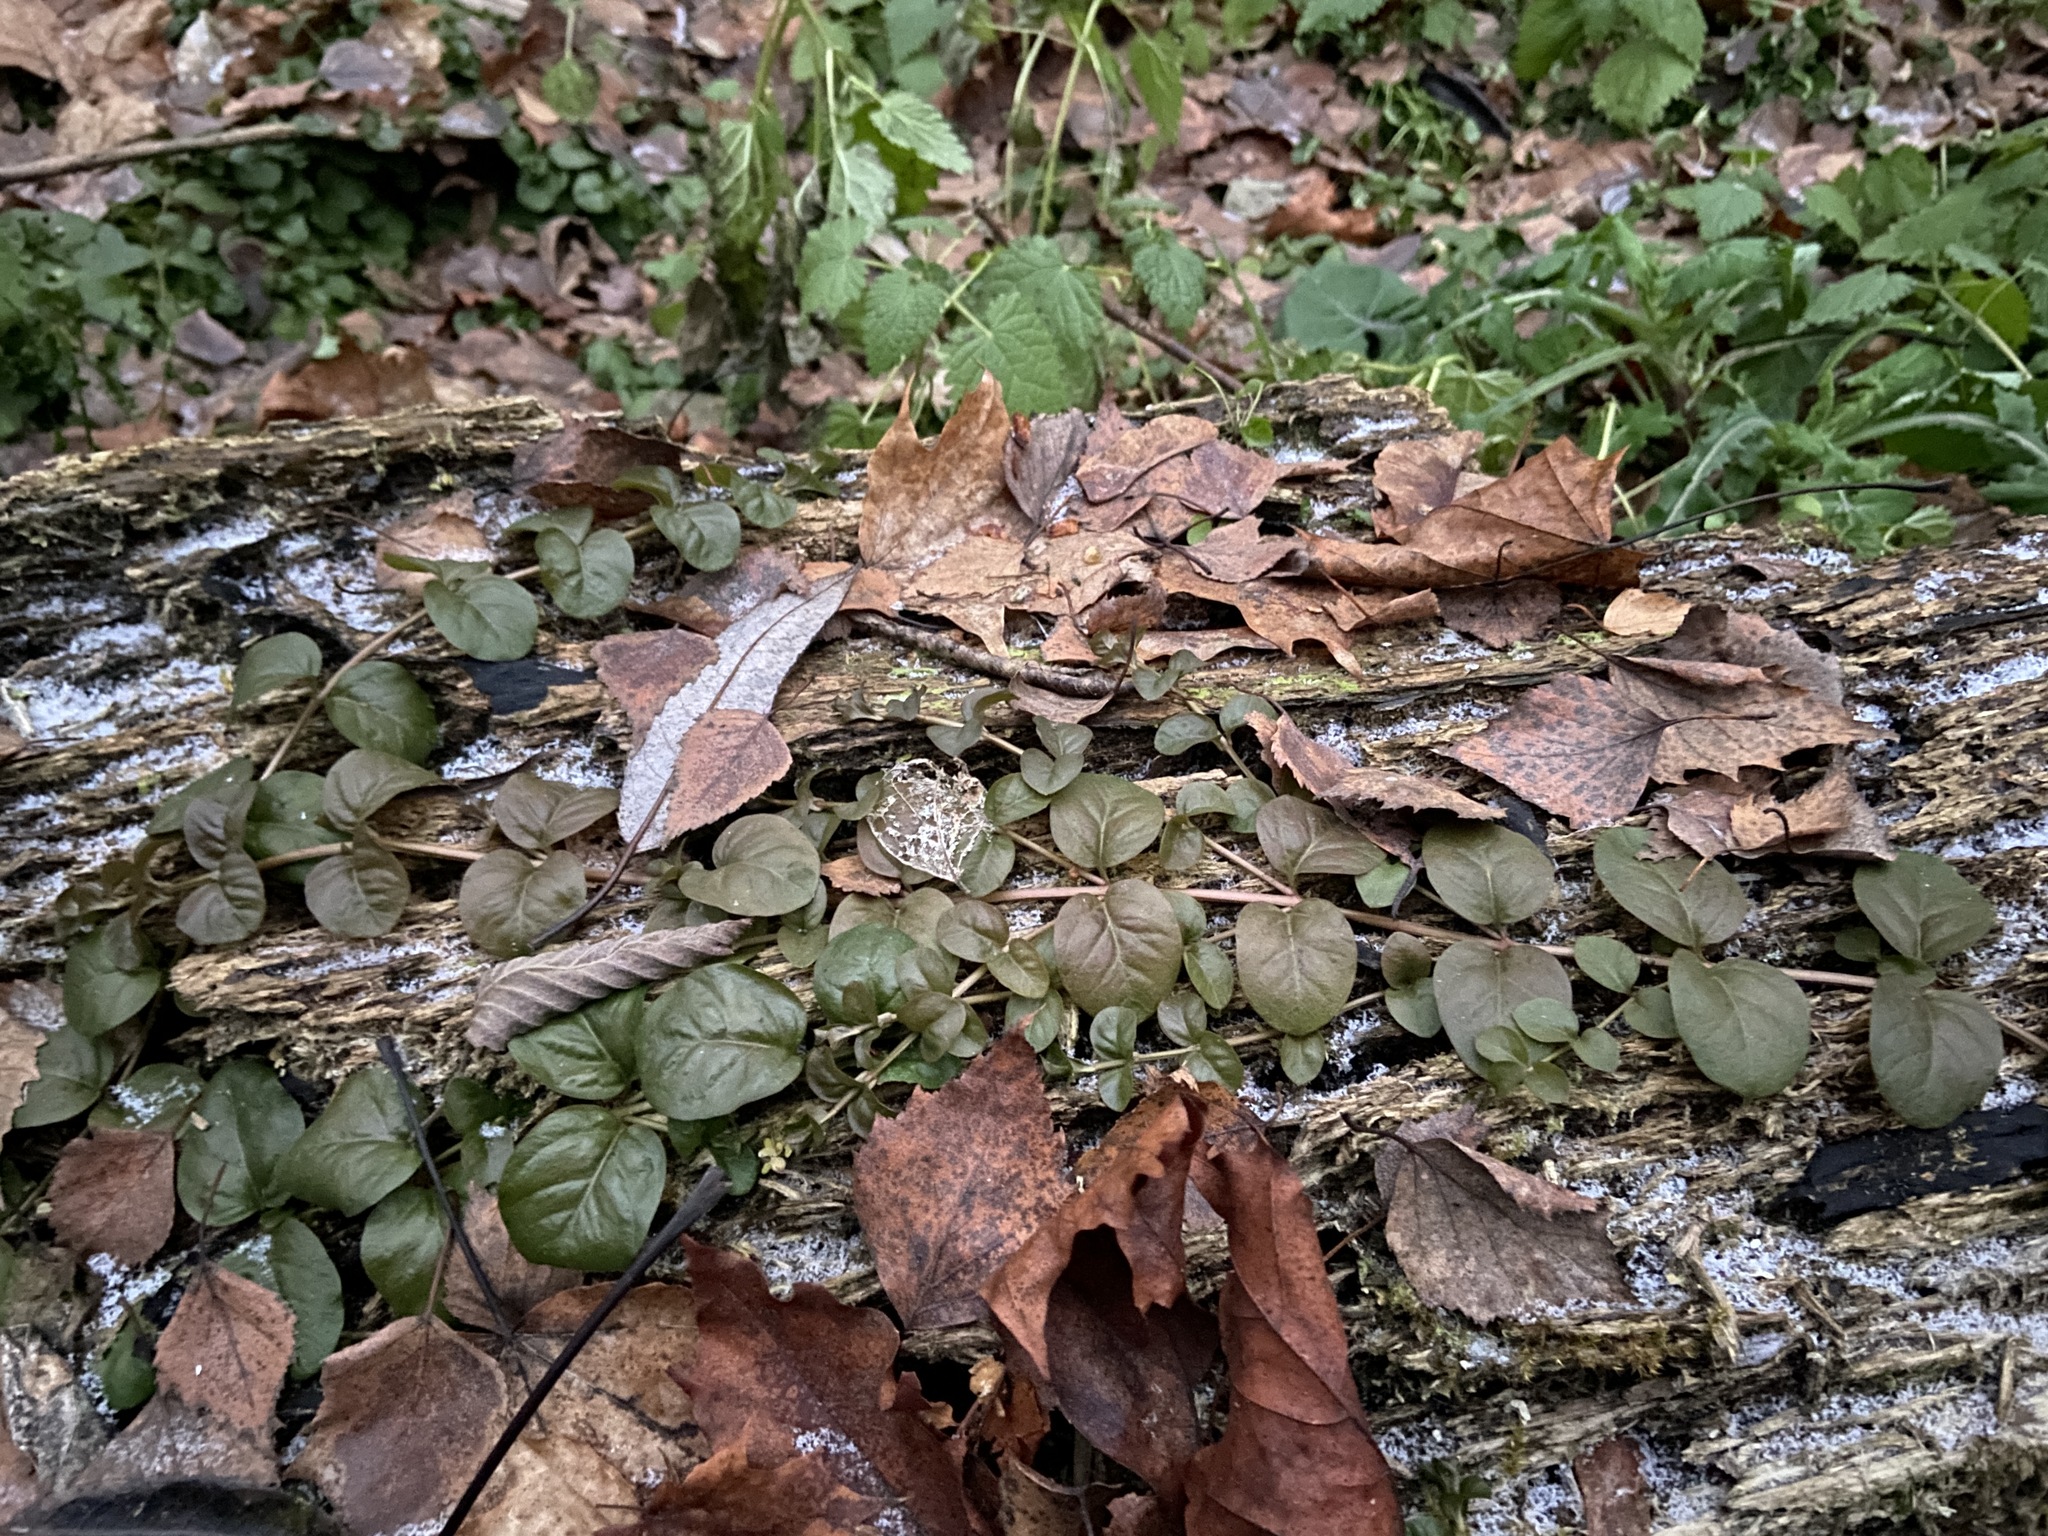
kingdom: Plantae
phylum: Tracheophyta
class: Magnoliopsida
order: Ericales
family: Primulaceae
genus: Lysimachia
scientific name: Lysimachia nummularia
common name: Moneywort
